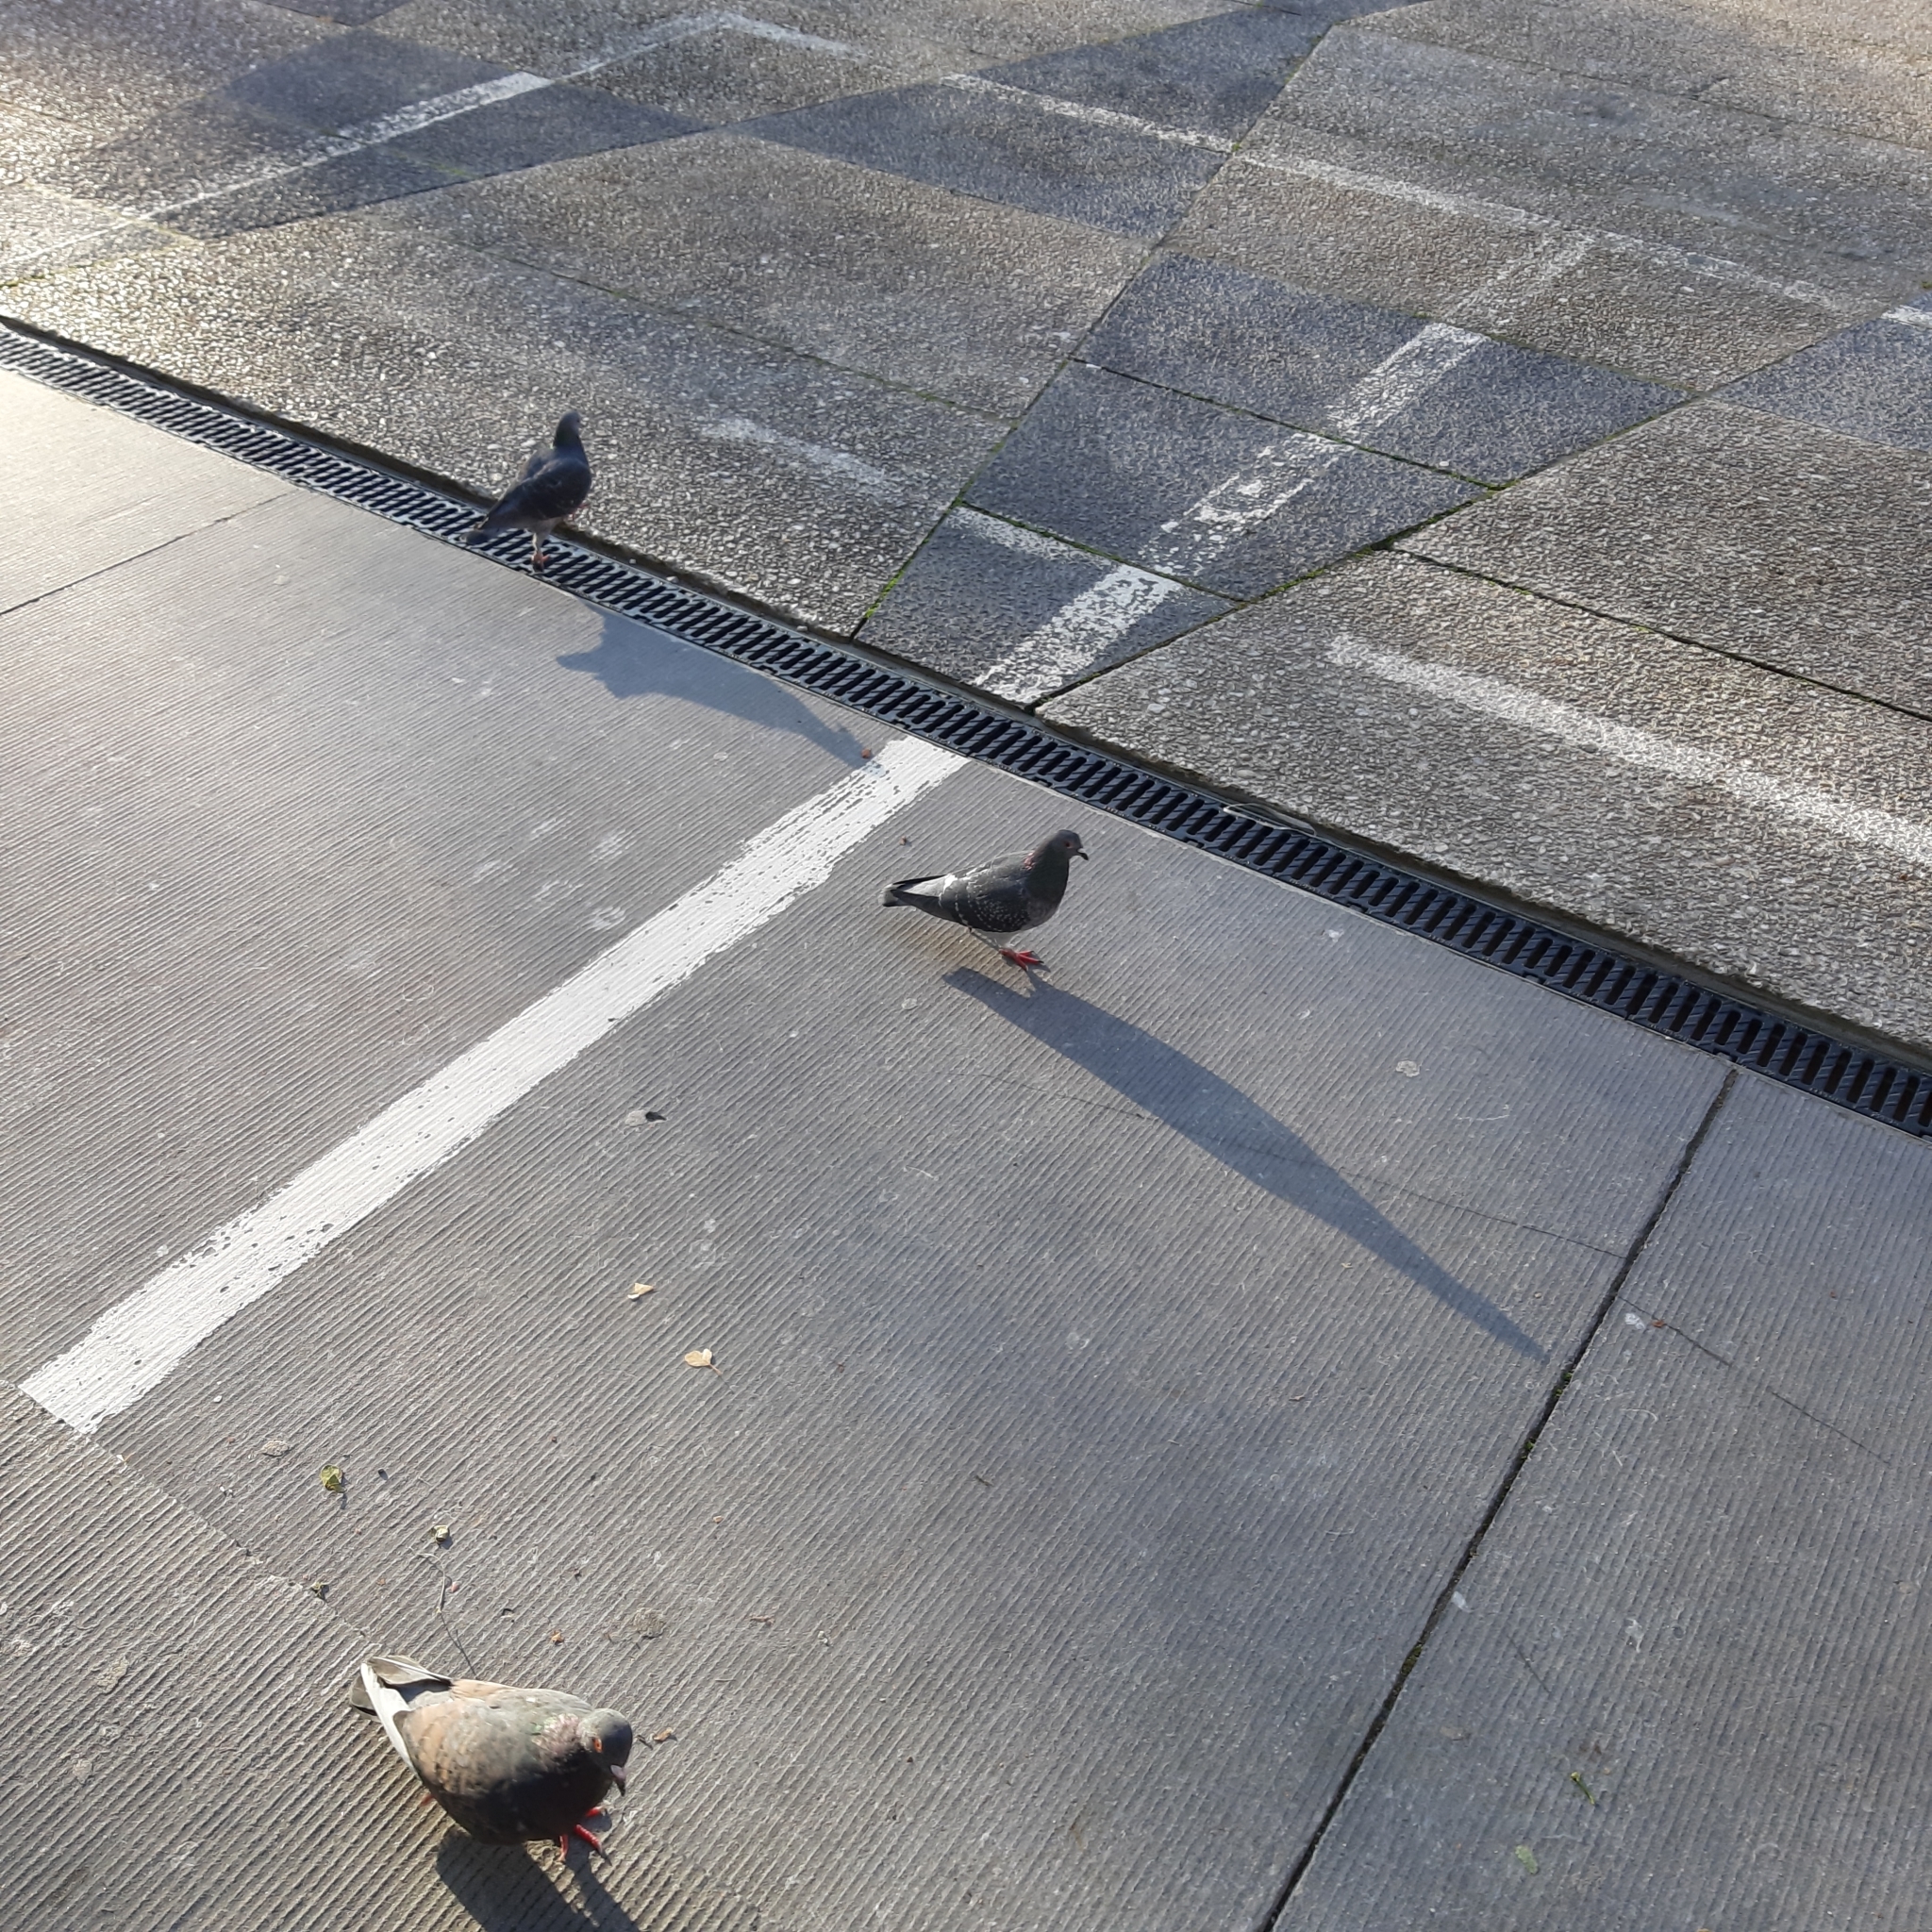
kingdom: Animalia
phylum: Chordata
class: Aves
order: Columbiformes
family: Columbidae
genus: Columba
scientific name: Columba livia
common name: Rock pigeon
